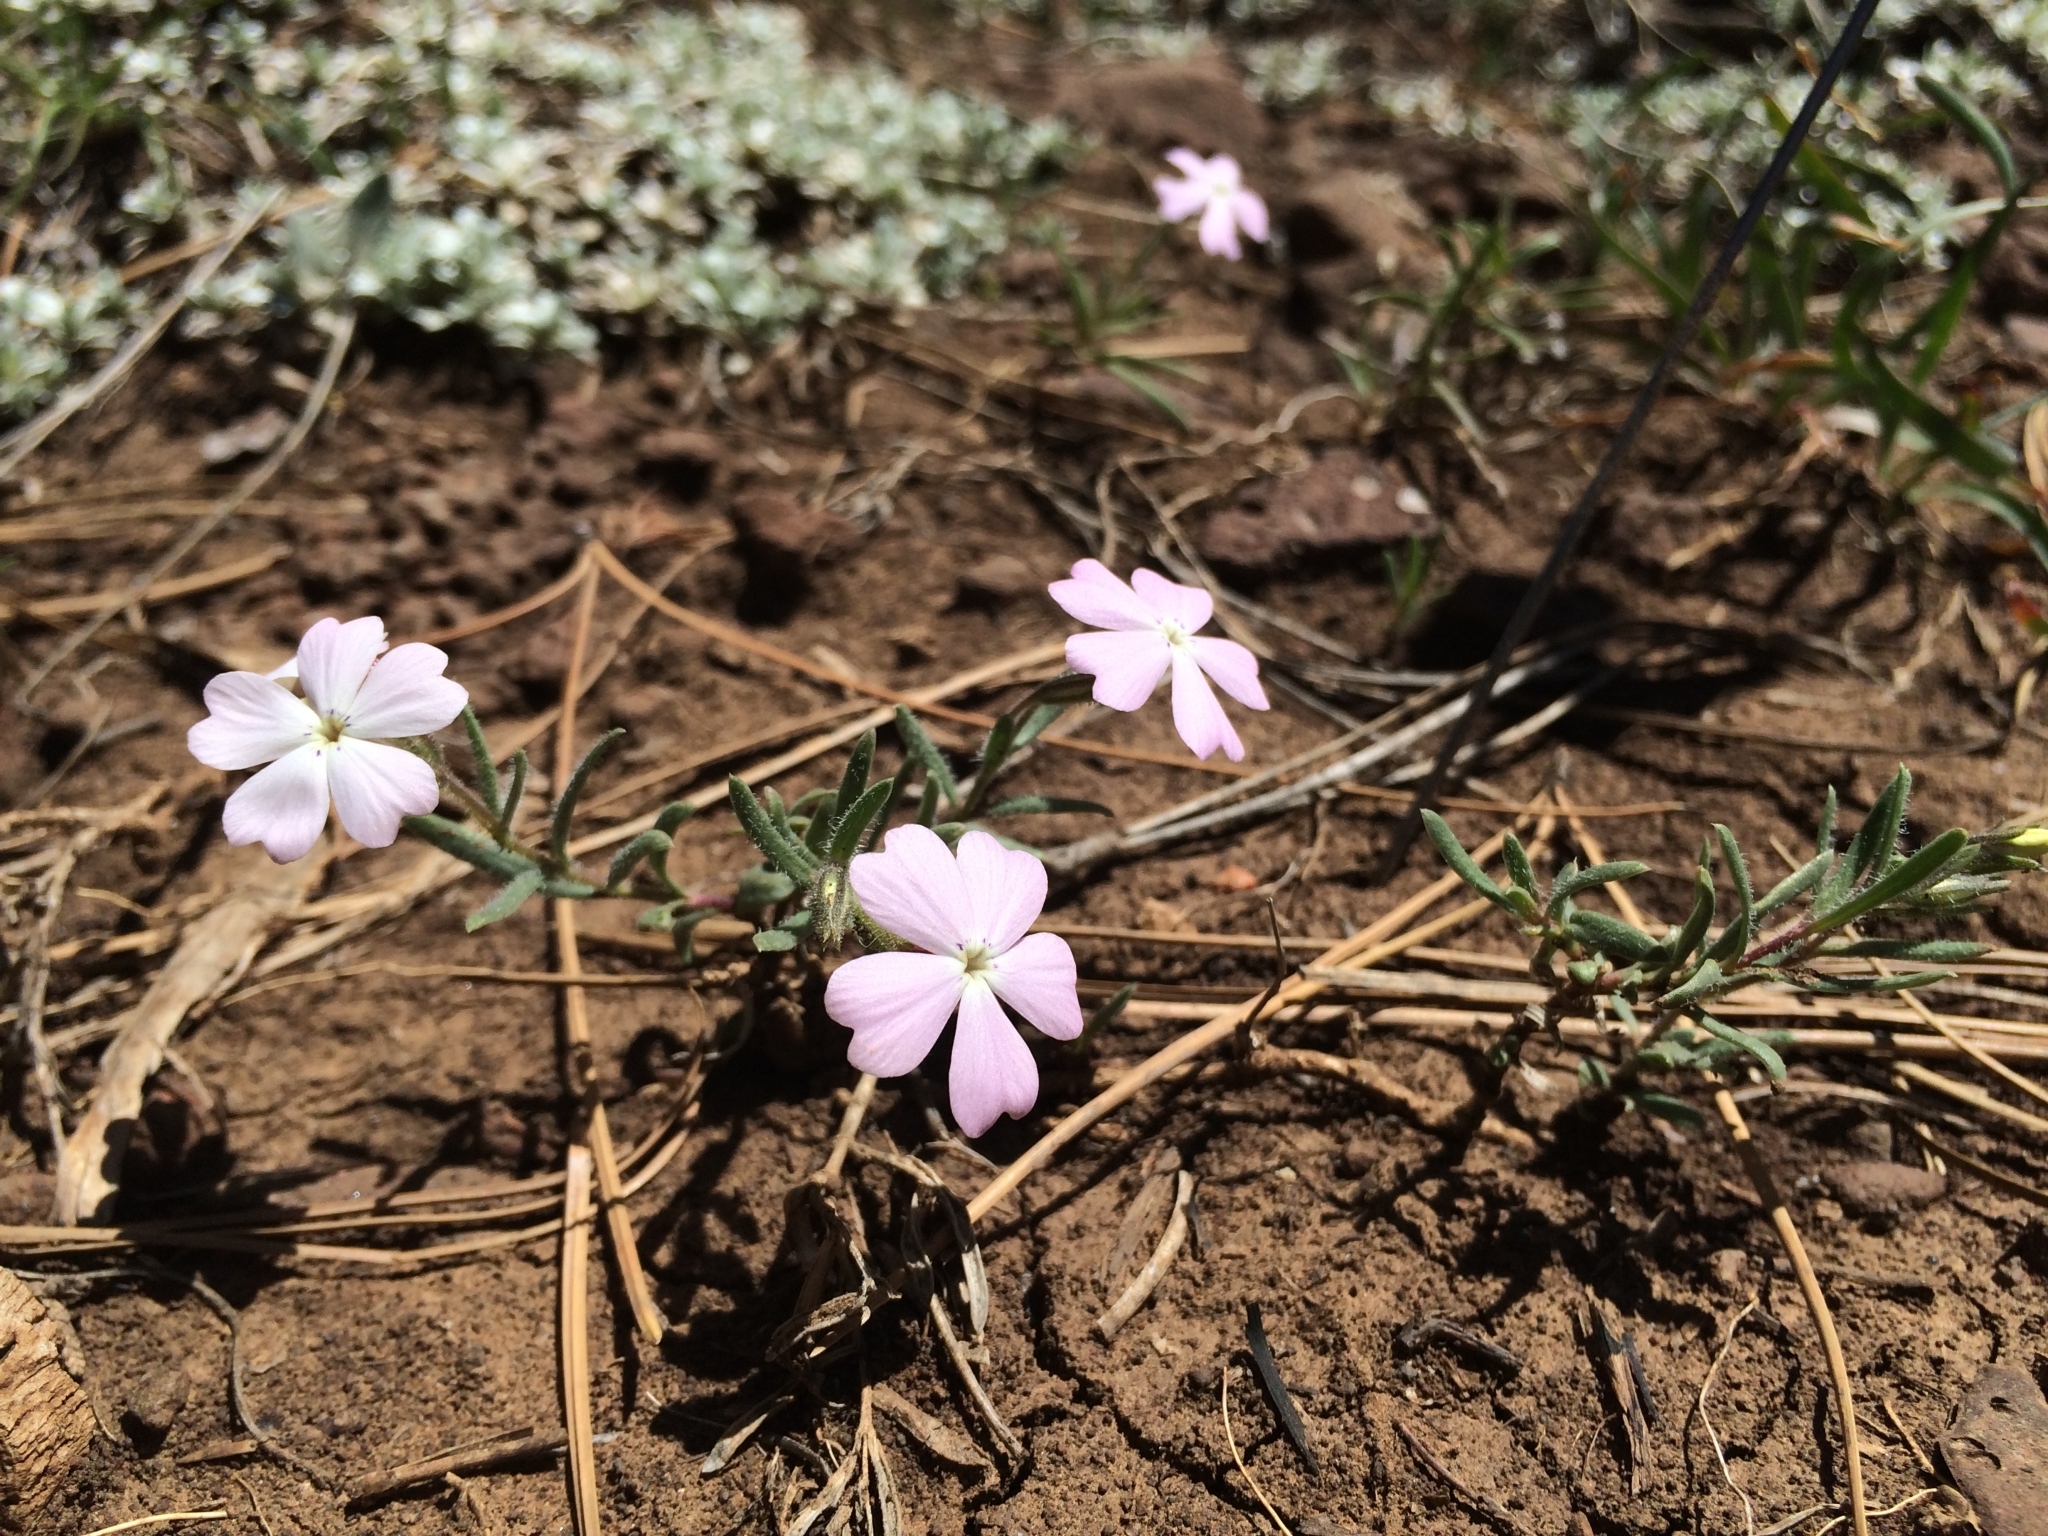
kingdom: Plantae
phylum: Tracheophyta
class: Magnoliopsida
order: Ericales
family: Polemoniaceae
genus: Phlox
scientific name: Phlox woodhousei
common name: Star phlox
